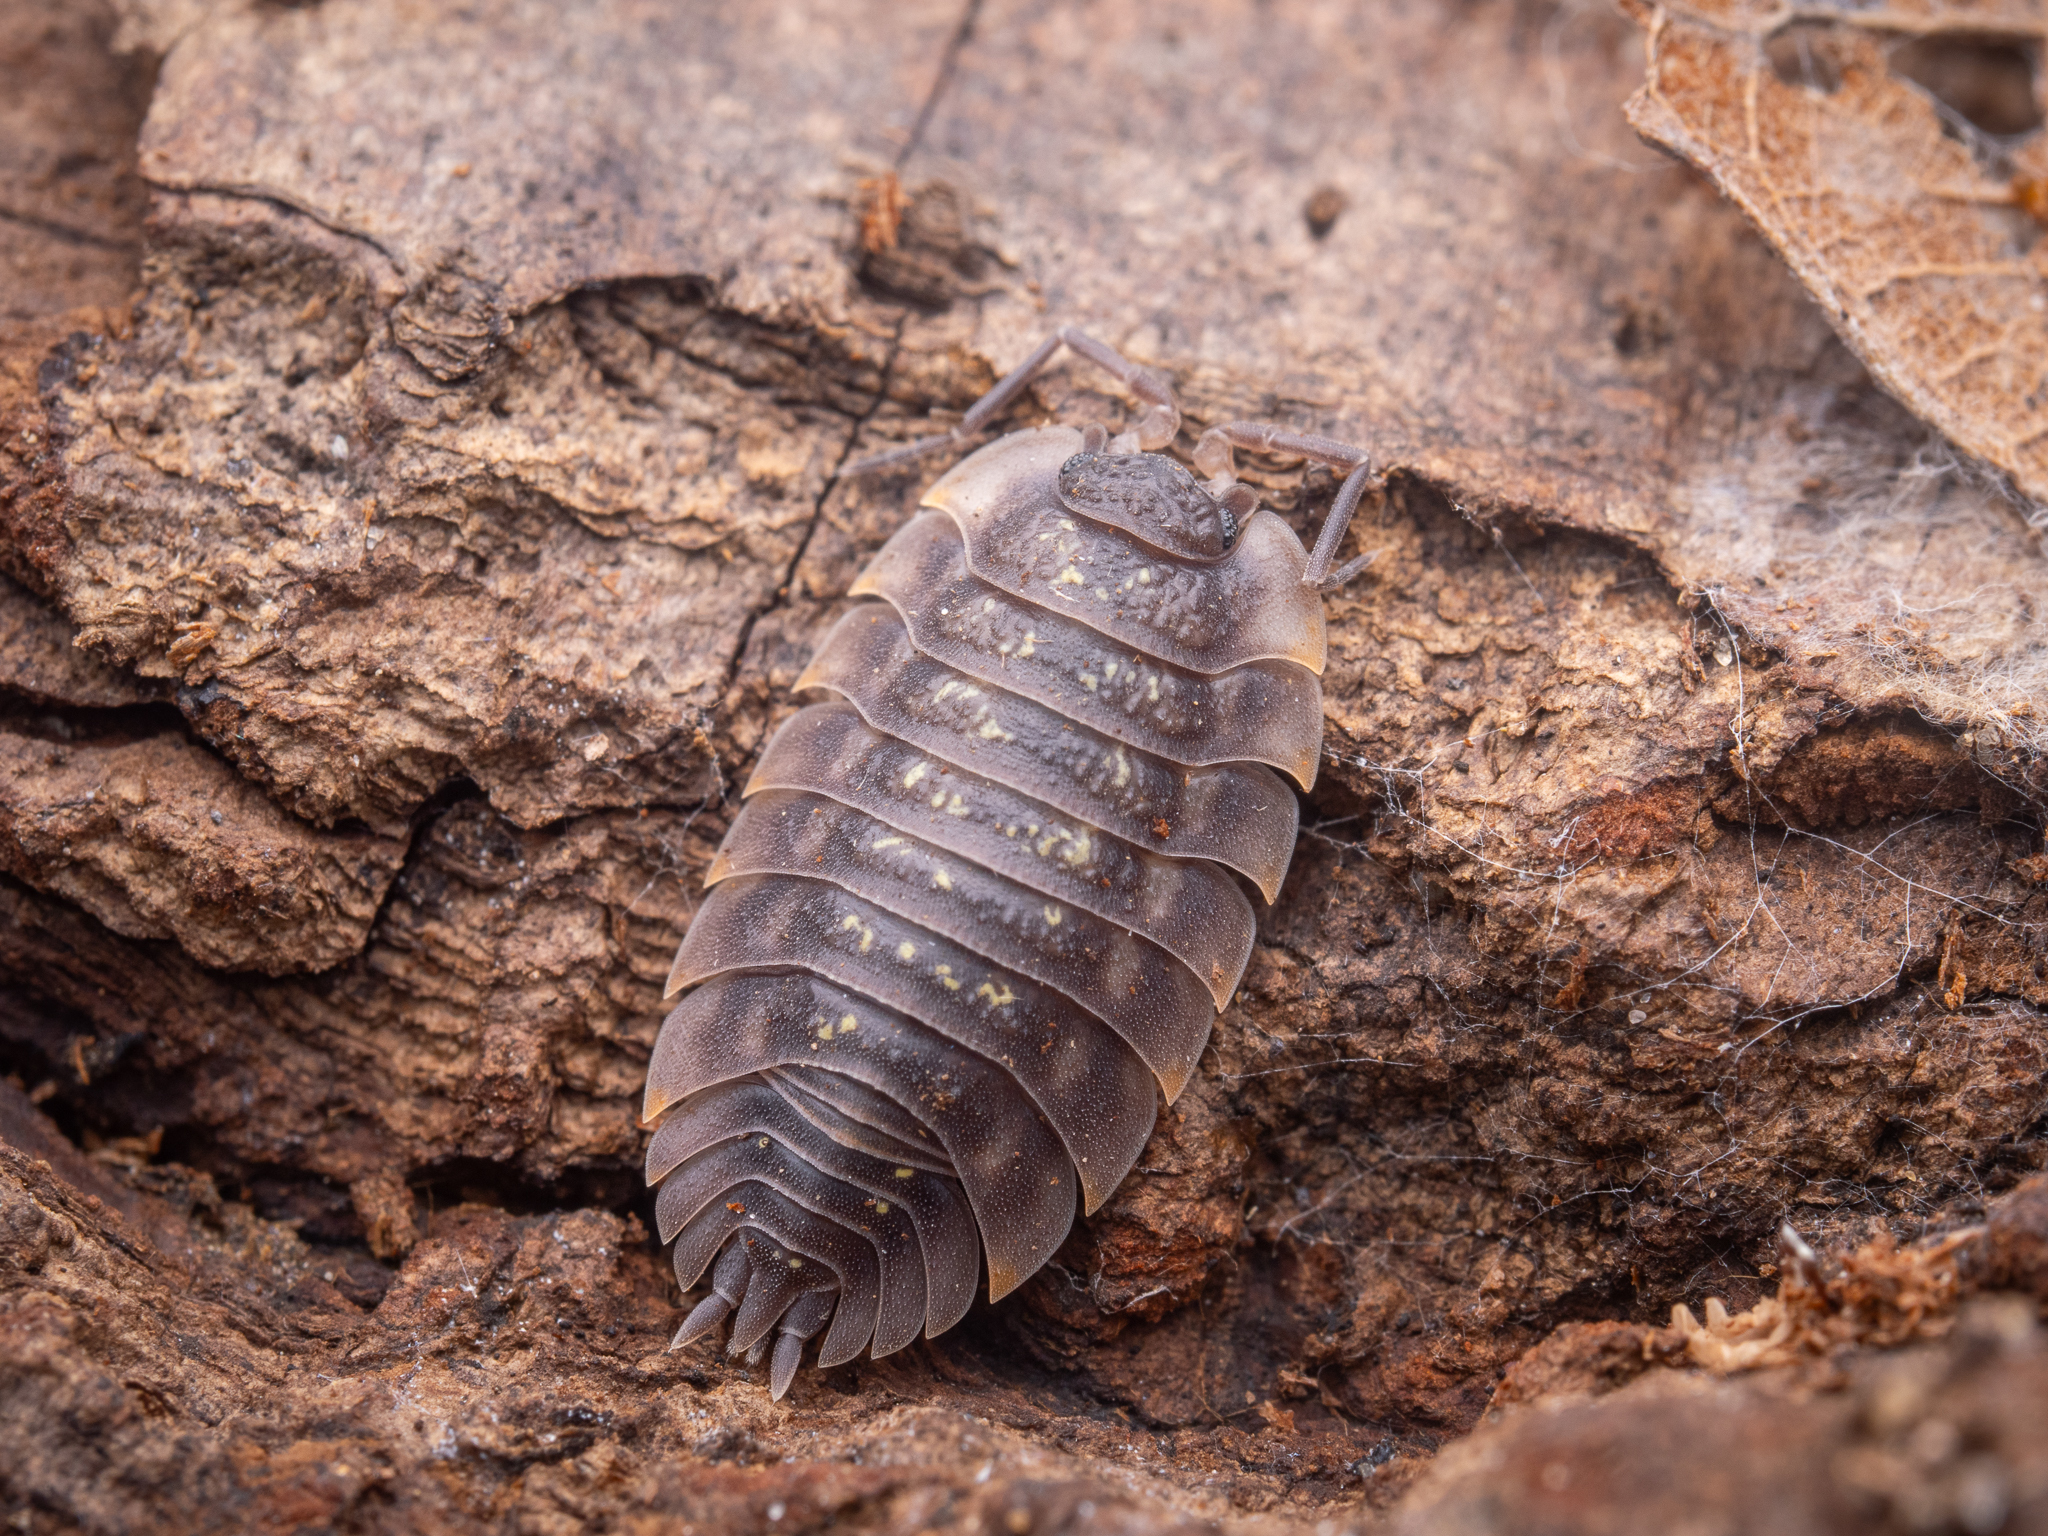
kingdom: Animalia
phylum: Arthropoda
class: Malacostraca
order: Isopoda
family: Oniscidae
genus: Oniscus
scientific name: Oniscus asellus
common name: Common shiny woodlouse
